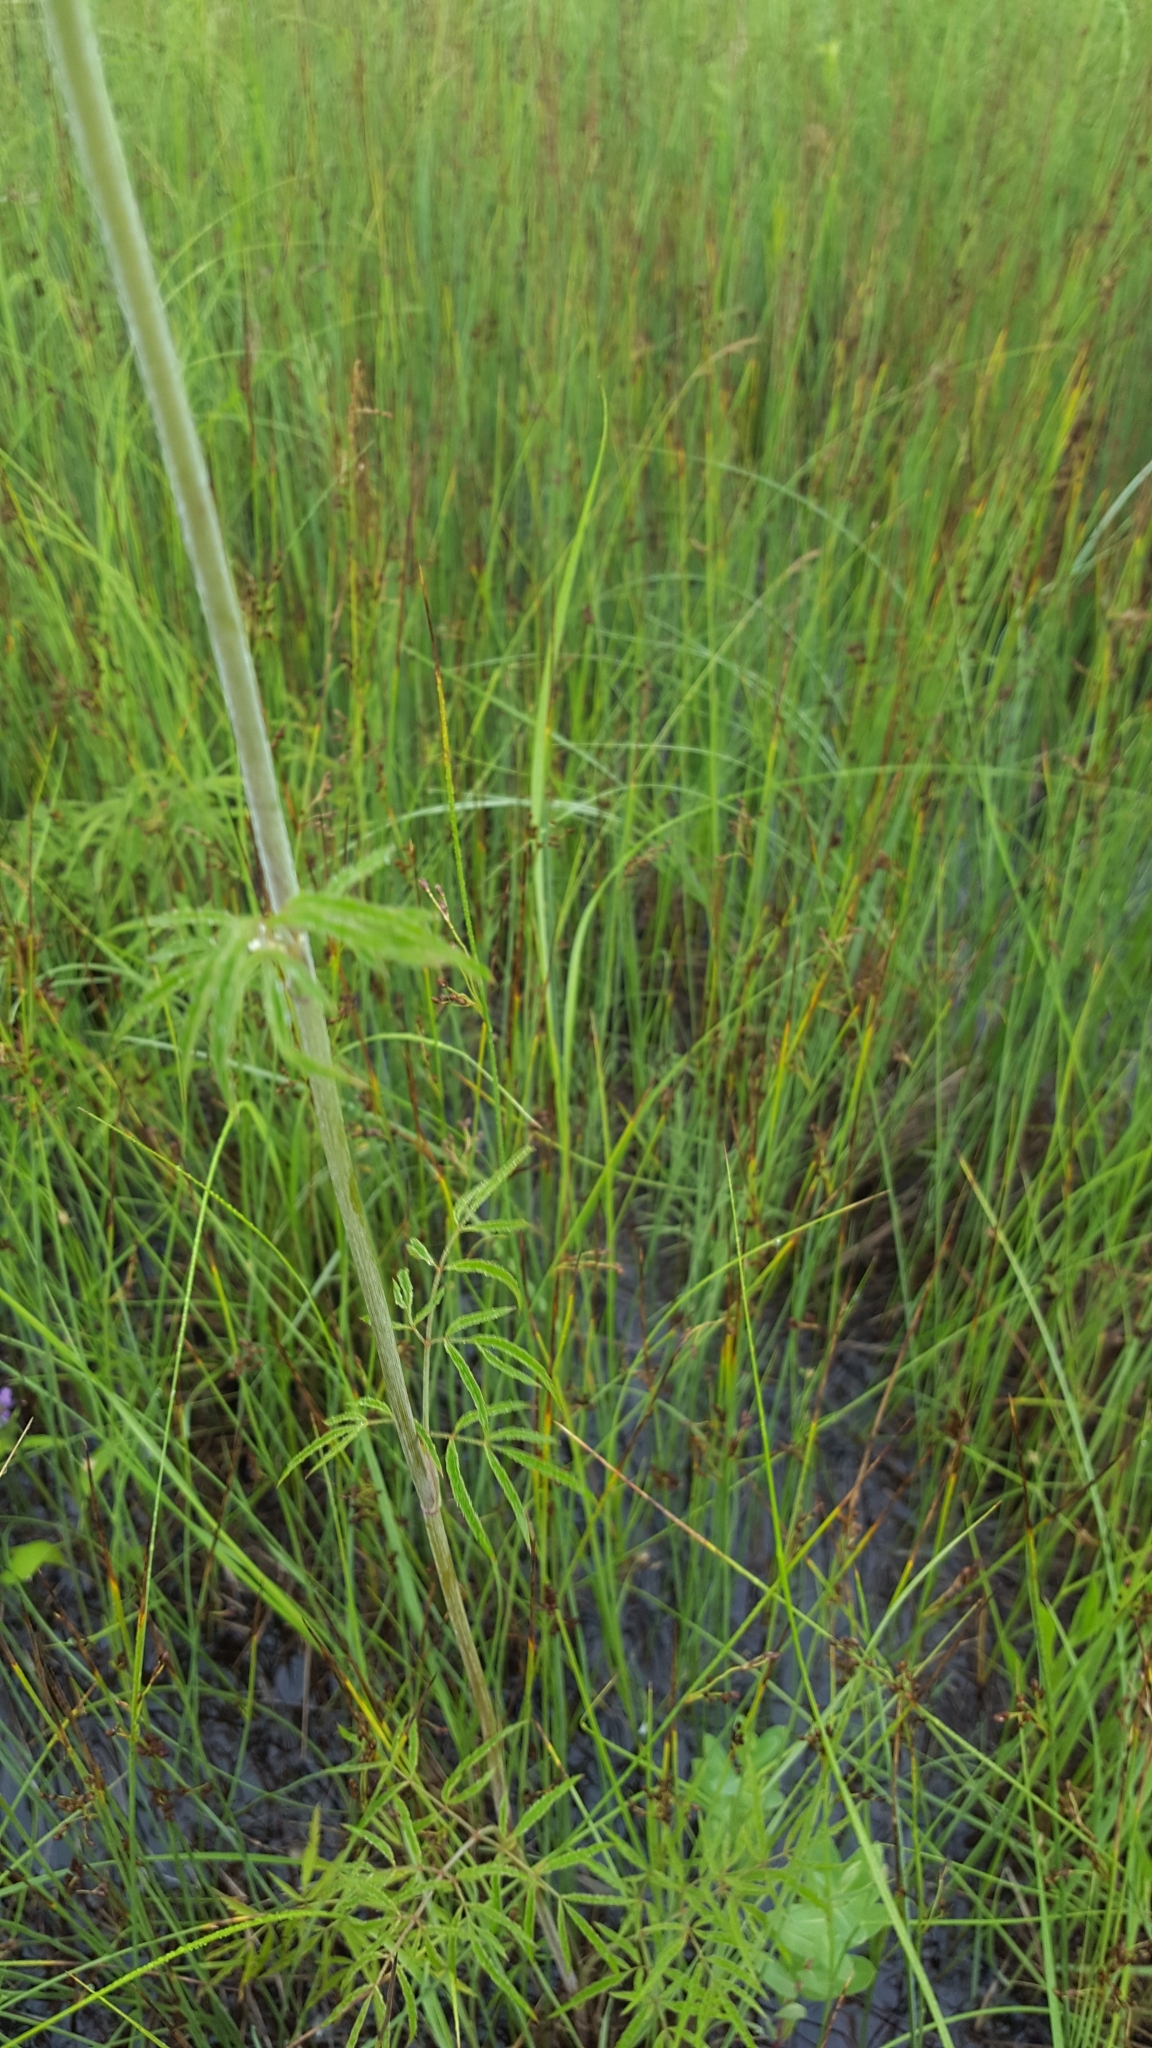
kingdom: Plantae
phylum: Tracheophyta
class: Magnoliopsida
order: Apiales
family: Apiaceae
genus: Cicuta
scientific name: Cicuta maculata
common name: Spotted cowbane
